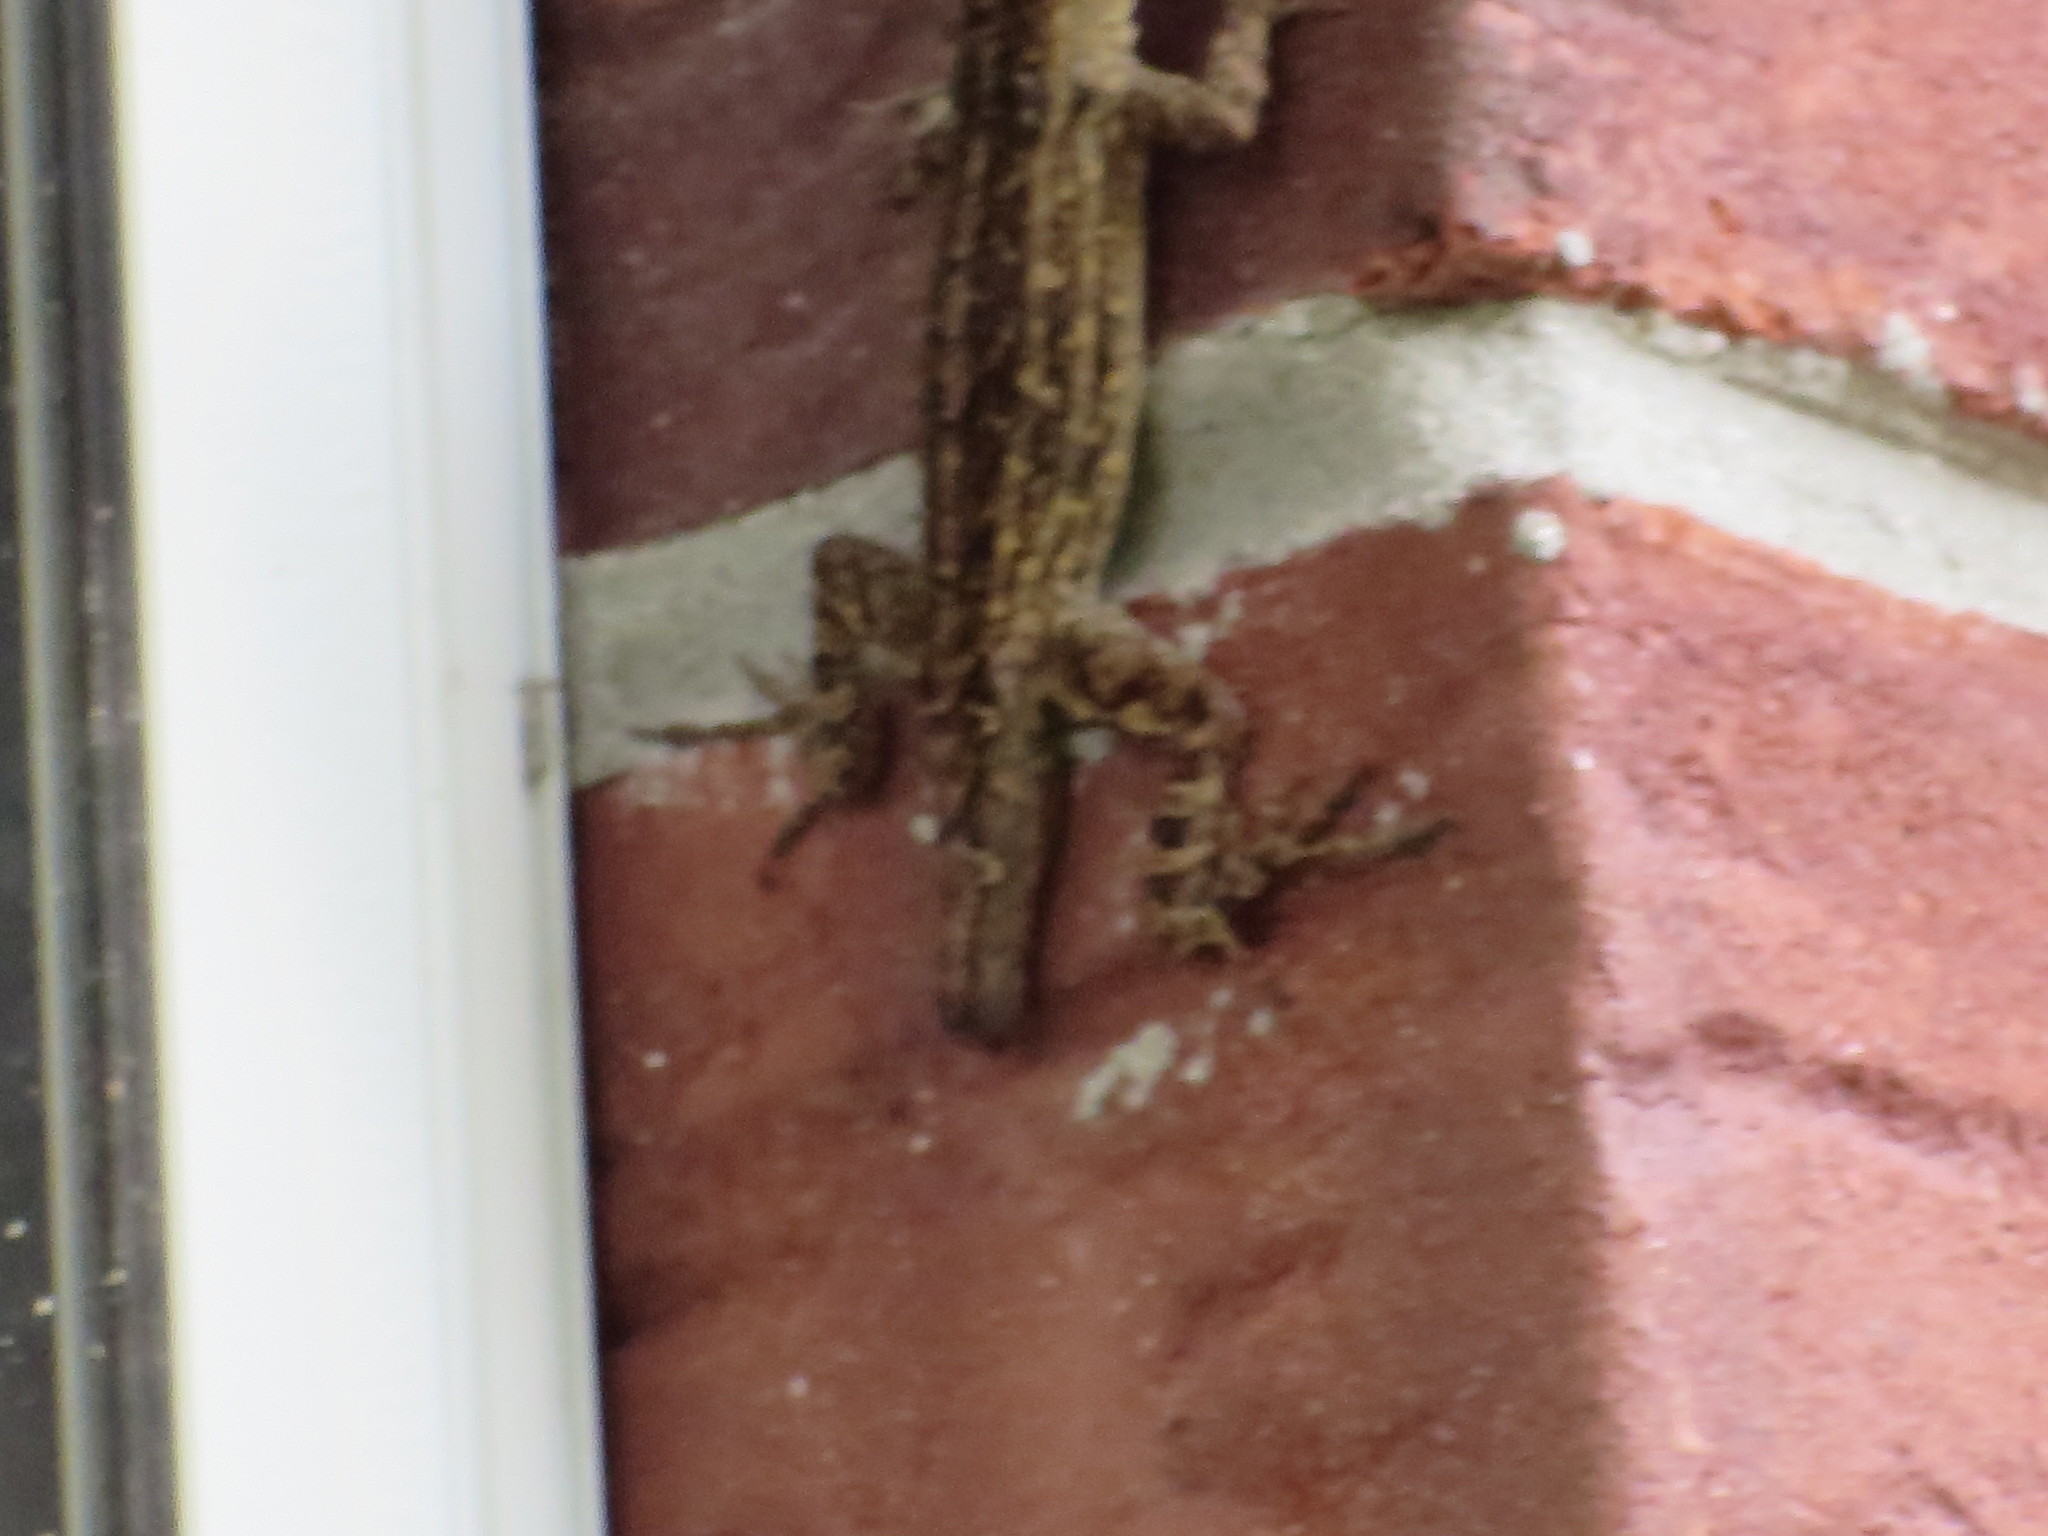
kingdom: Animalia
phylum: Chordata
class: Squamata
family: Dactyloidae
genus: Anolis
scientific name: Anolis sagrei
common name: Brown anole
